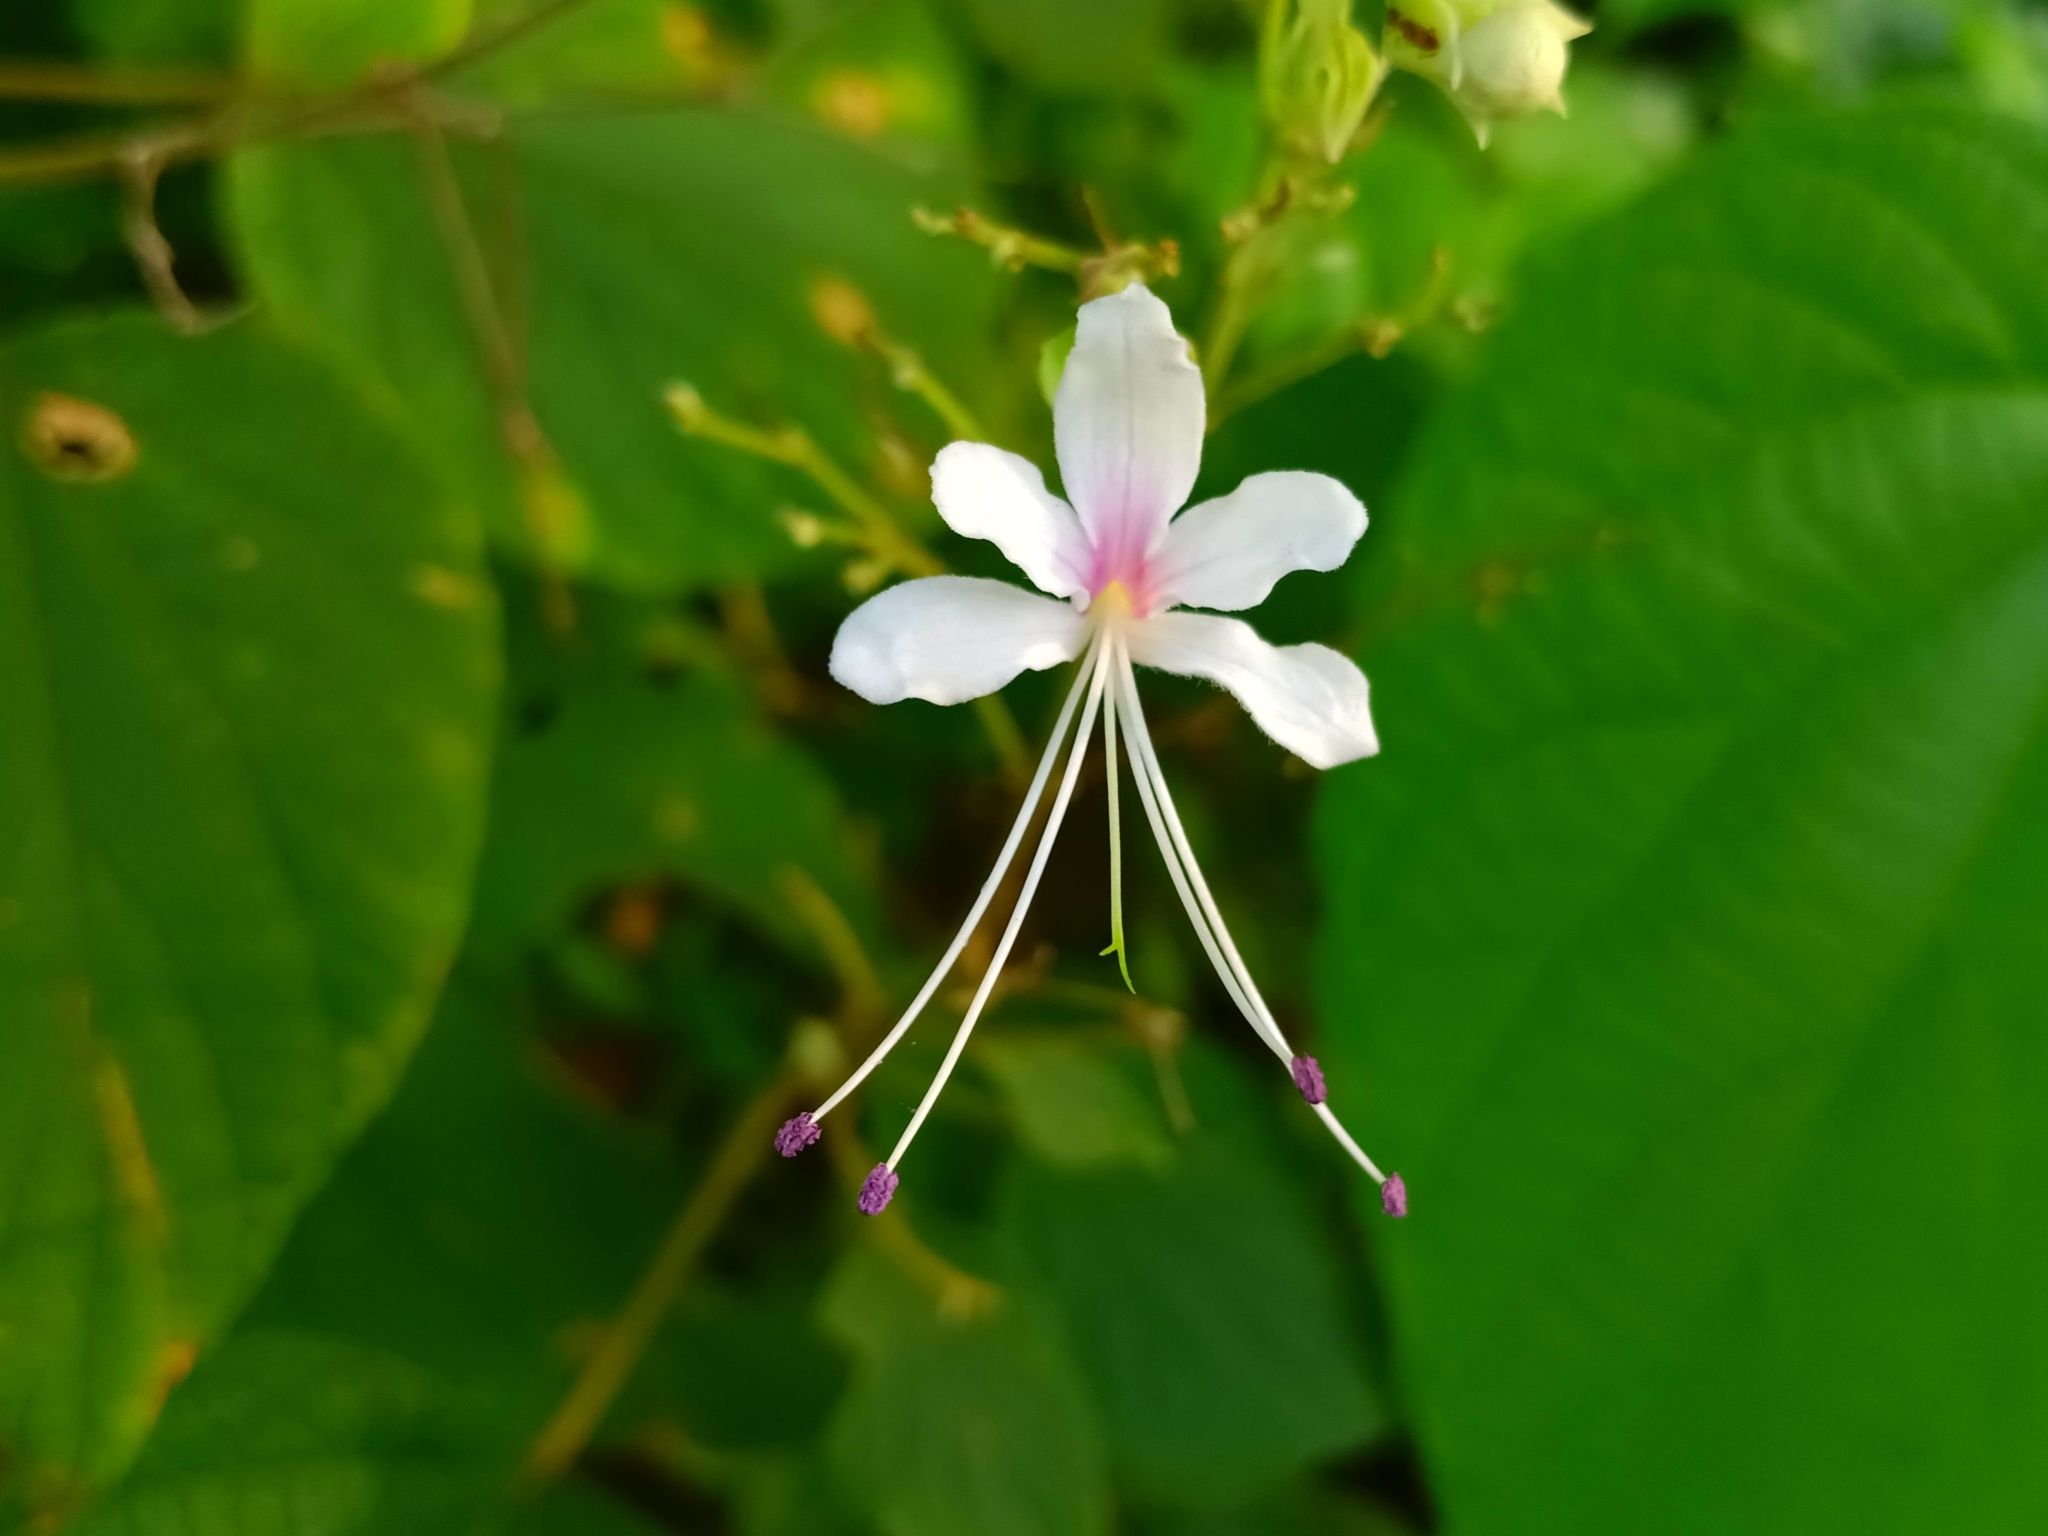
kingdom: Plantae
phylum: Tracheophyta
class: Magnoliopsida
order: Lamiales
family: Lamiaceae
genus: Clerodendrum
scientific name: Clerodendrum infortunatum
